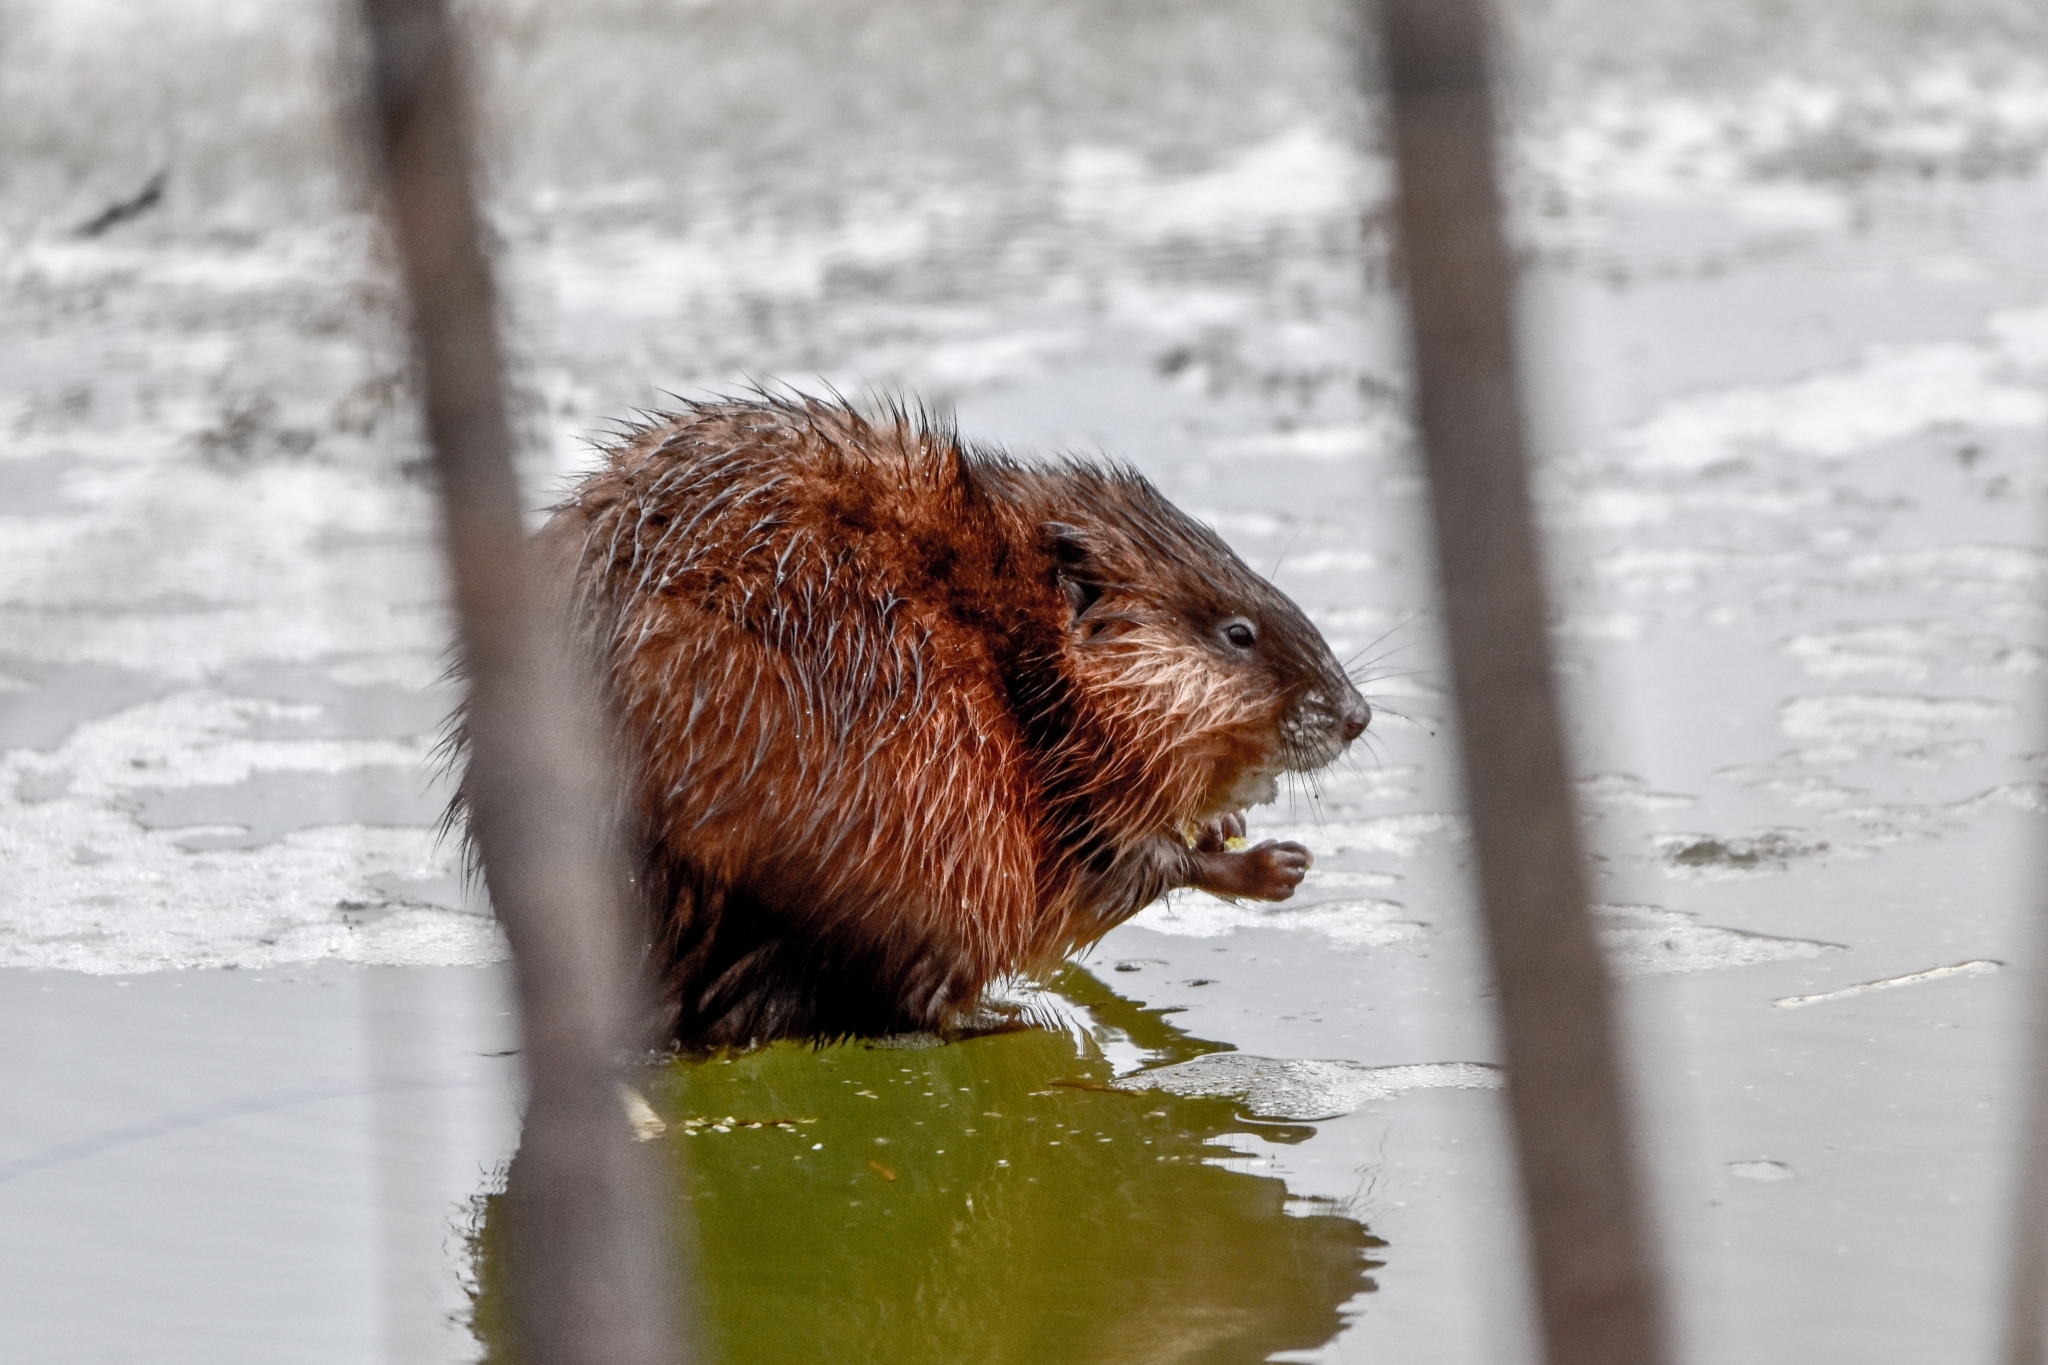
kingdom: Animalia
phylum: Chordata
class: Mammalia
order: Rodentia
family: Cricetidae
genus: Ondatra
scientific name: Ondatra zibethicus
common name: Muskrat
